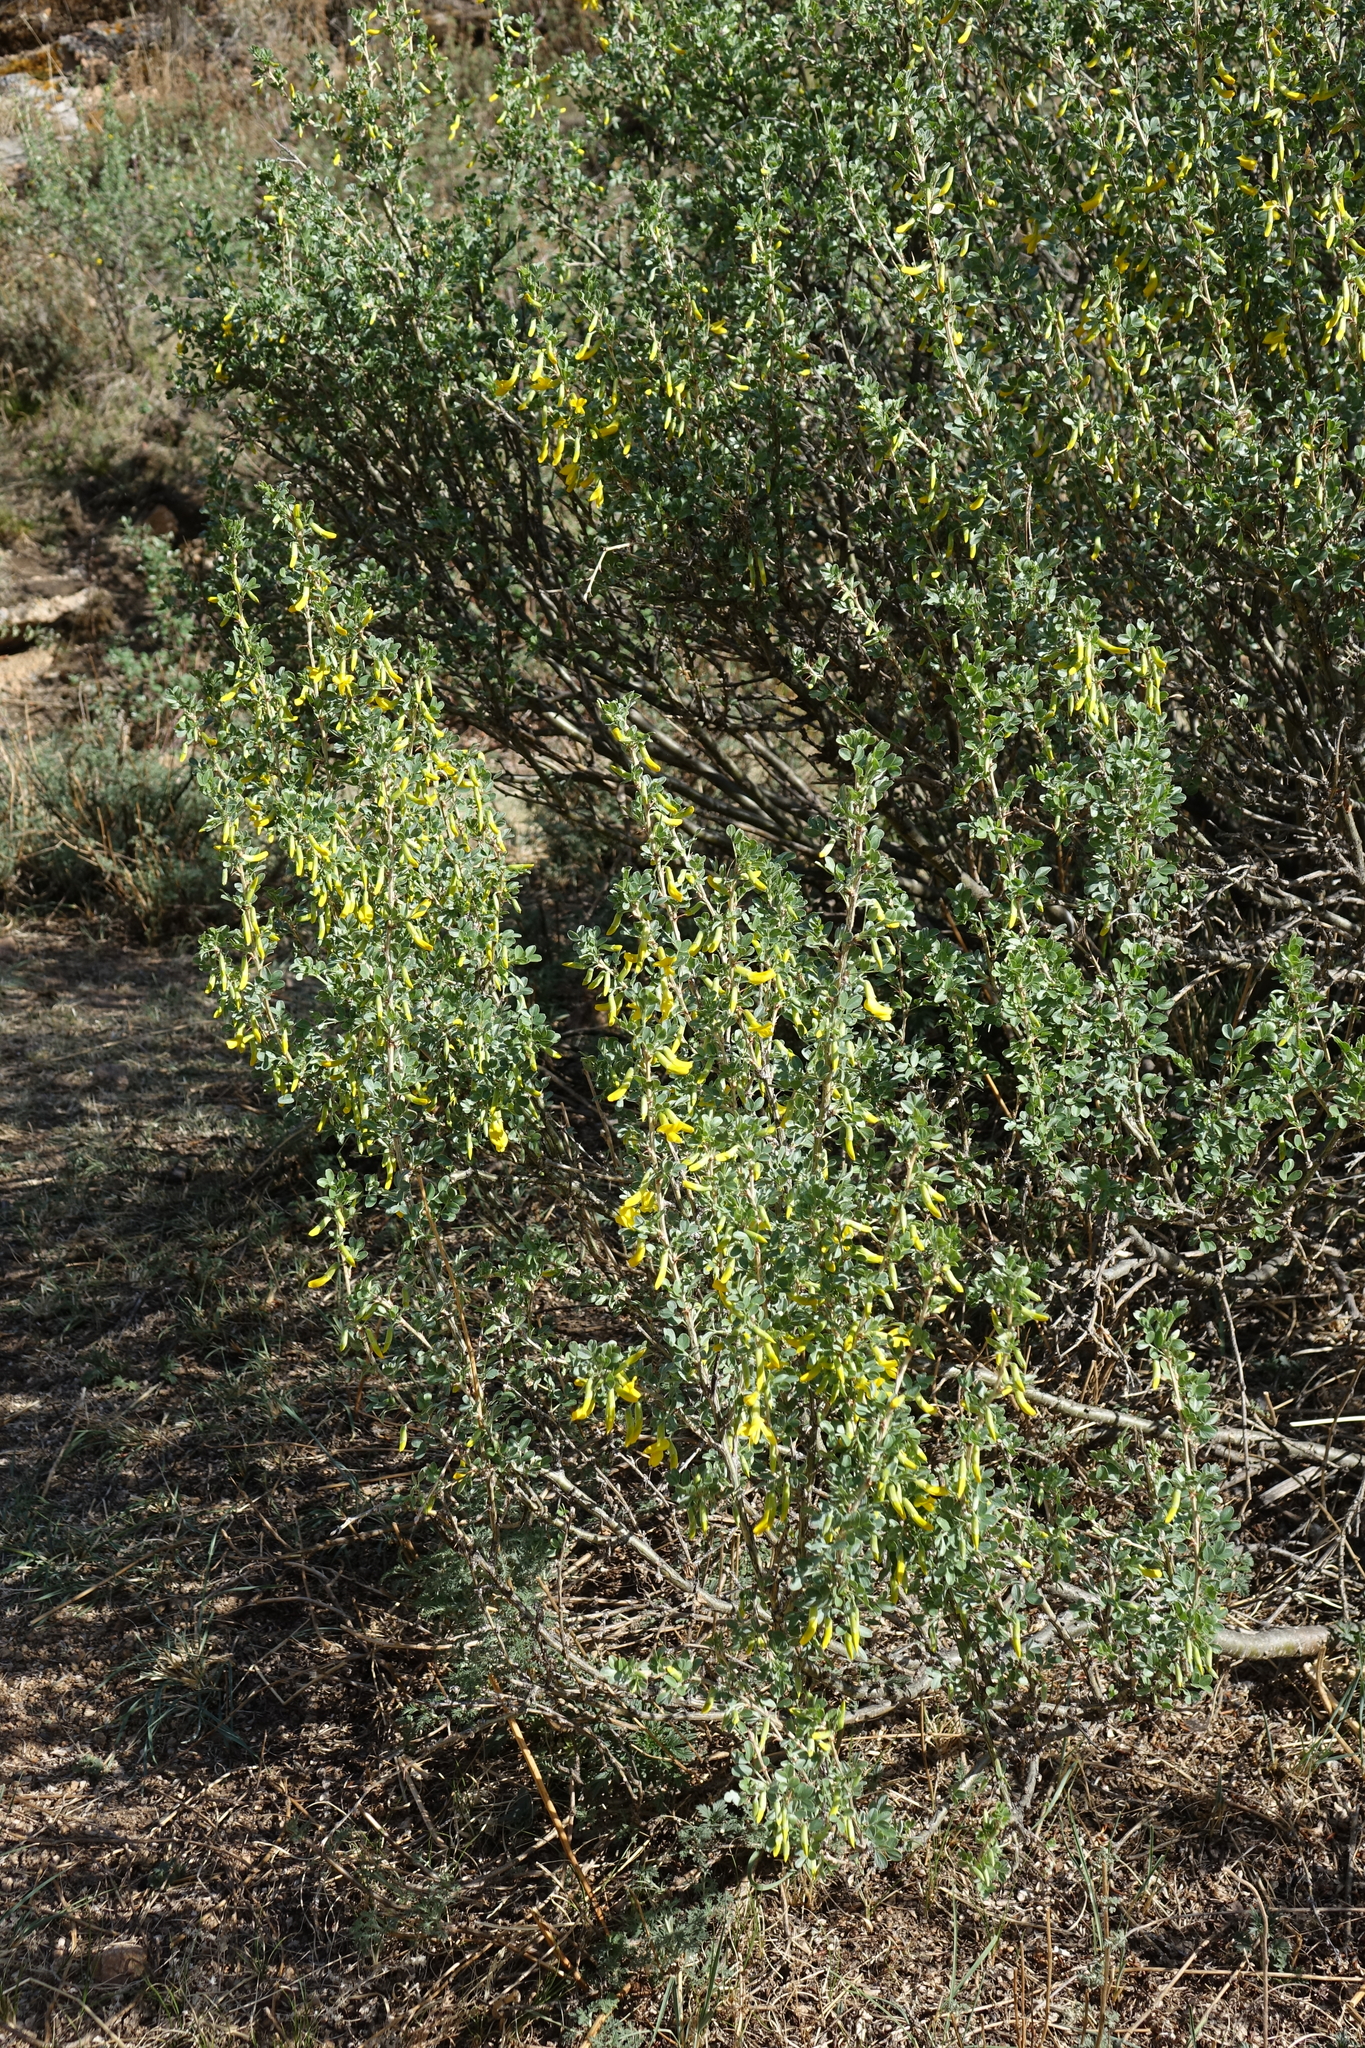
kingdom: Plantae
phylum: Tracheophyta
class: Magnoliopsida
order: Fabales
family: Fabaceae
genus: Caragana
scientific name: Caragana bungei
